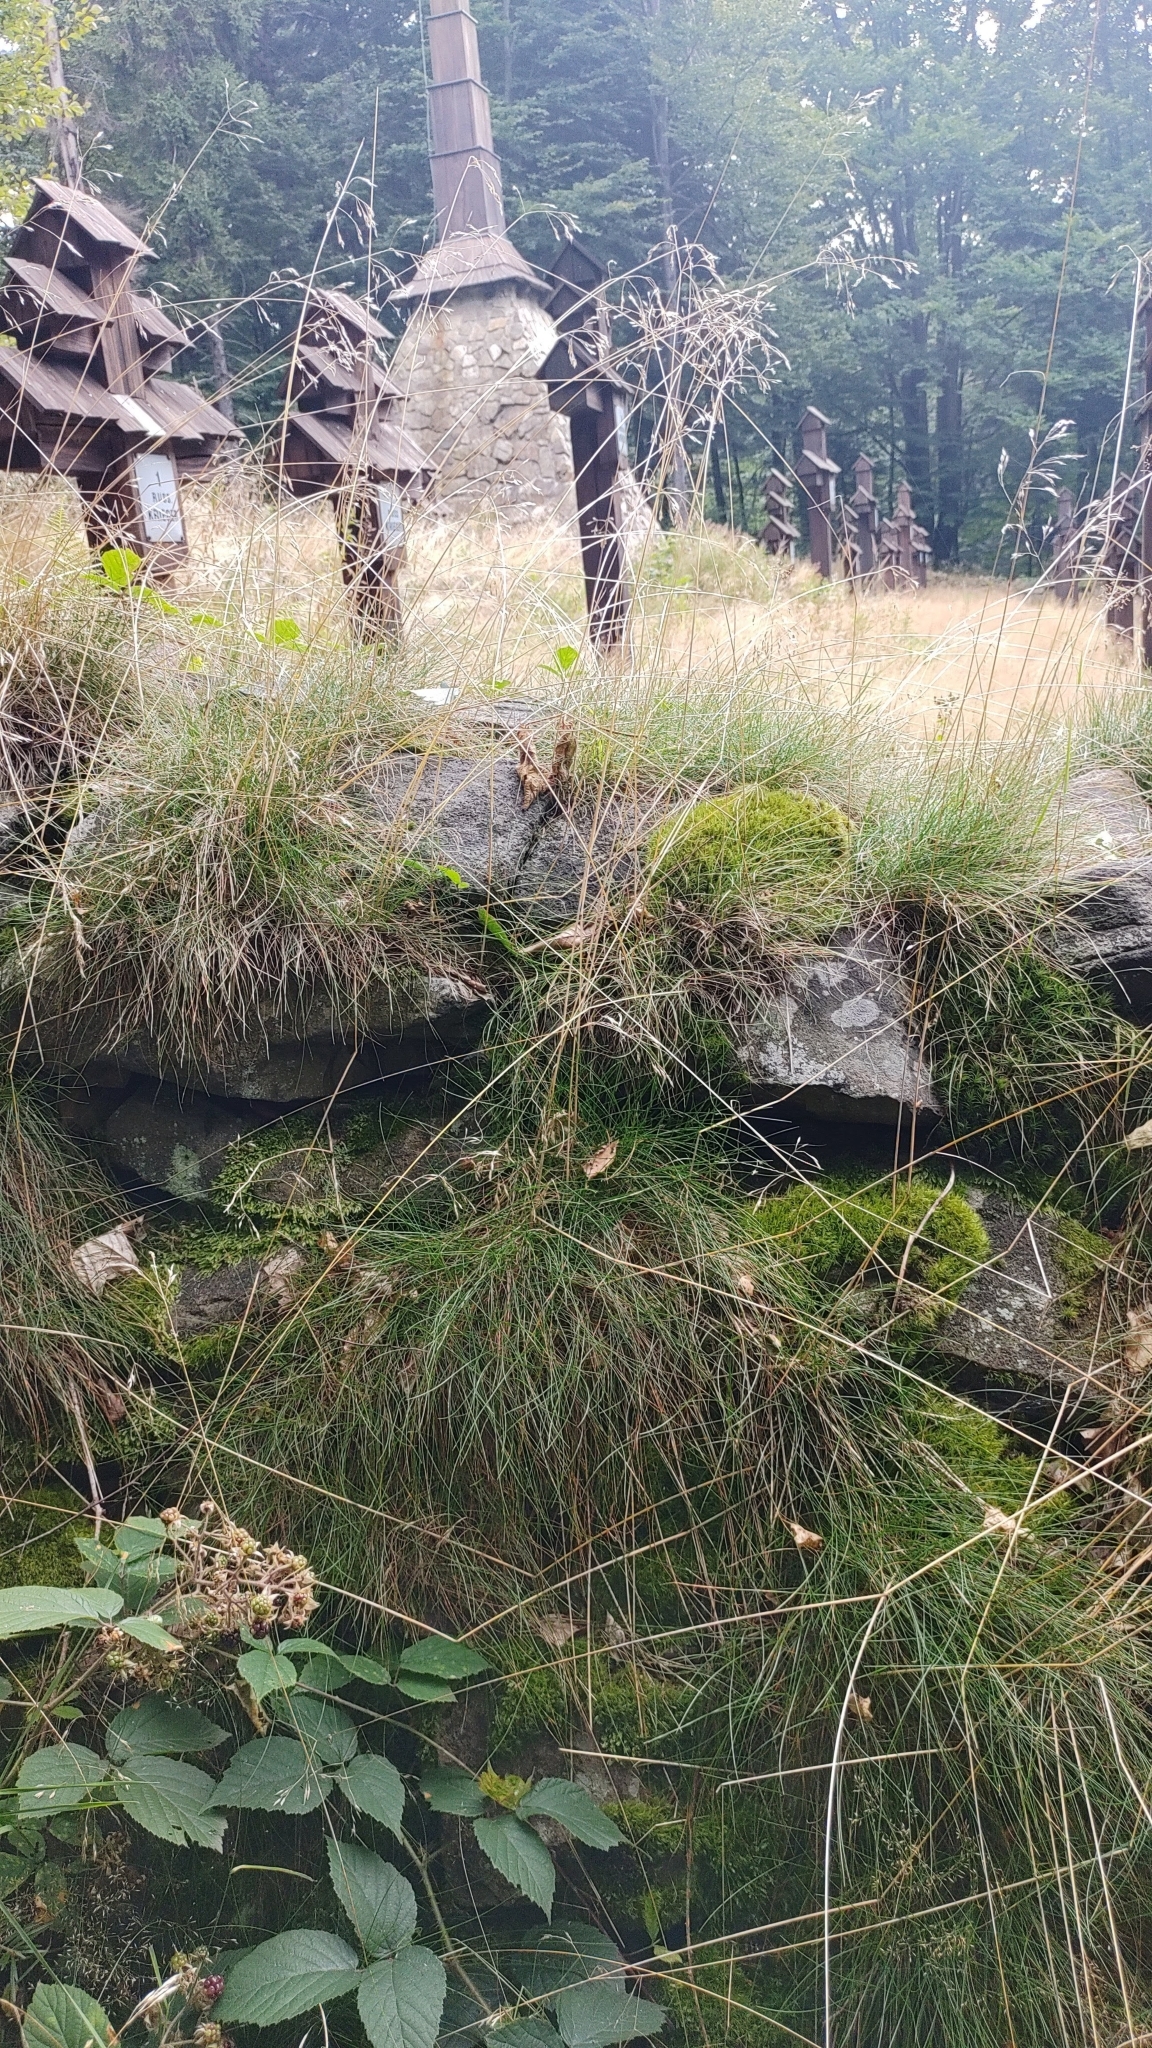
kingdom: Plantae
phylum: Bryophyta
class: Bryopsida
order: Hypnales
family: Plagiotheciaceae
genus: Pseudotaxiphyllum
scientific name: Pseudotaxiphyllum elegans
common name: Elegant silk moss
